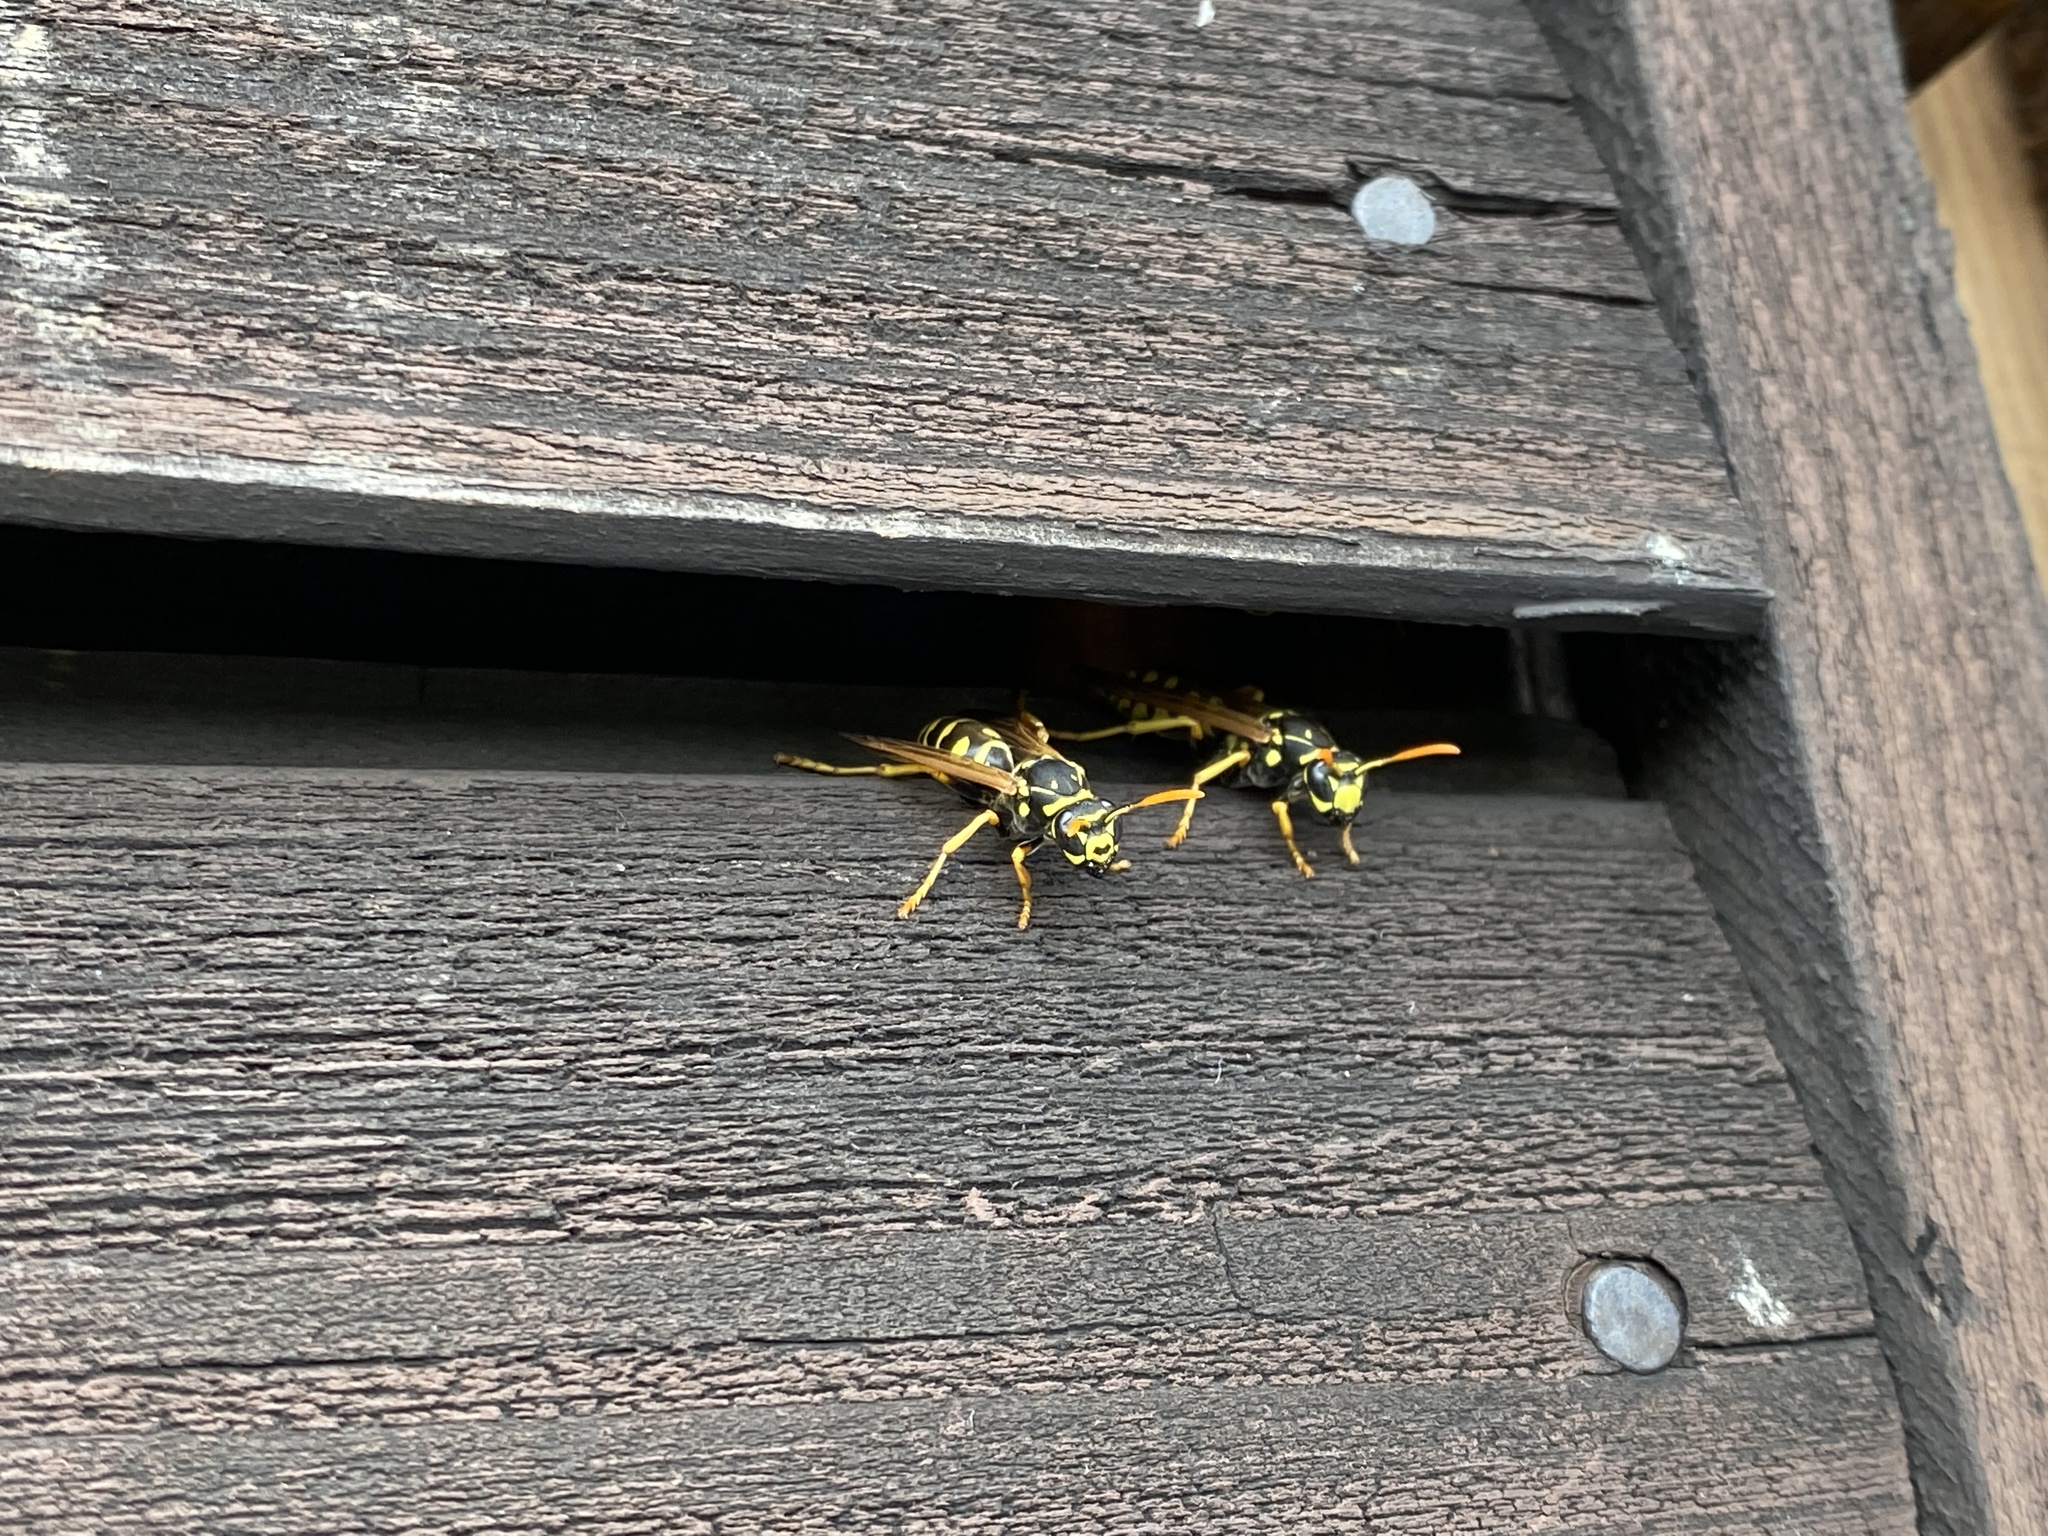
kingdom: Animalia
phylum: Arthropoda
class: Insecta
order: Hymenoptera
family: Eumenidae
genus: Polistes
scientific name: Polistes dominula
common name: Paper wasp
